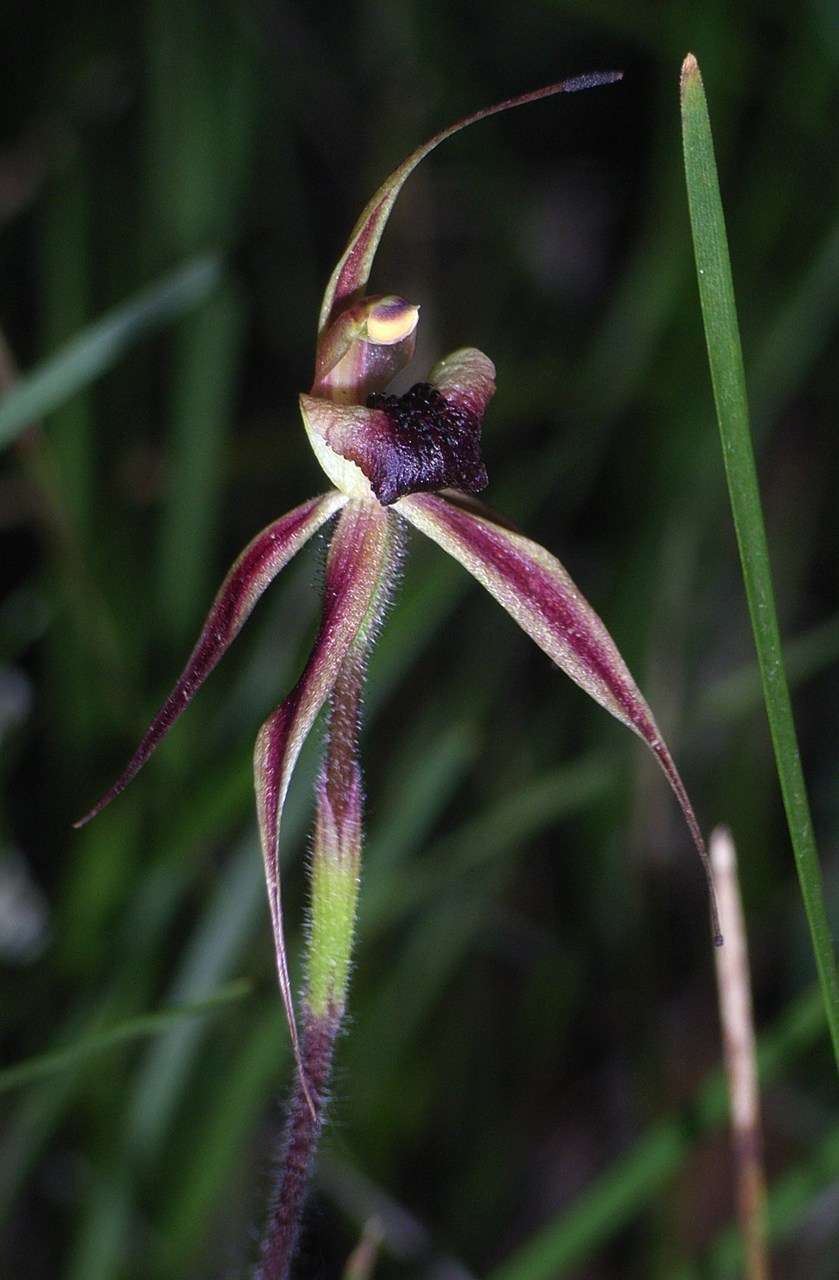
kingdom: Plantae
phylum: Tracheophyta
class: Liliopsida
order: Asparagales
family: Orchidaceae
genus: Caladenia
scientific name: Caladenia clavigera
